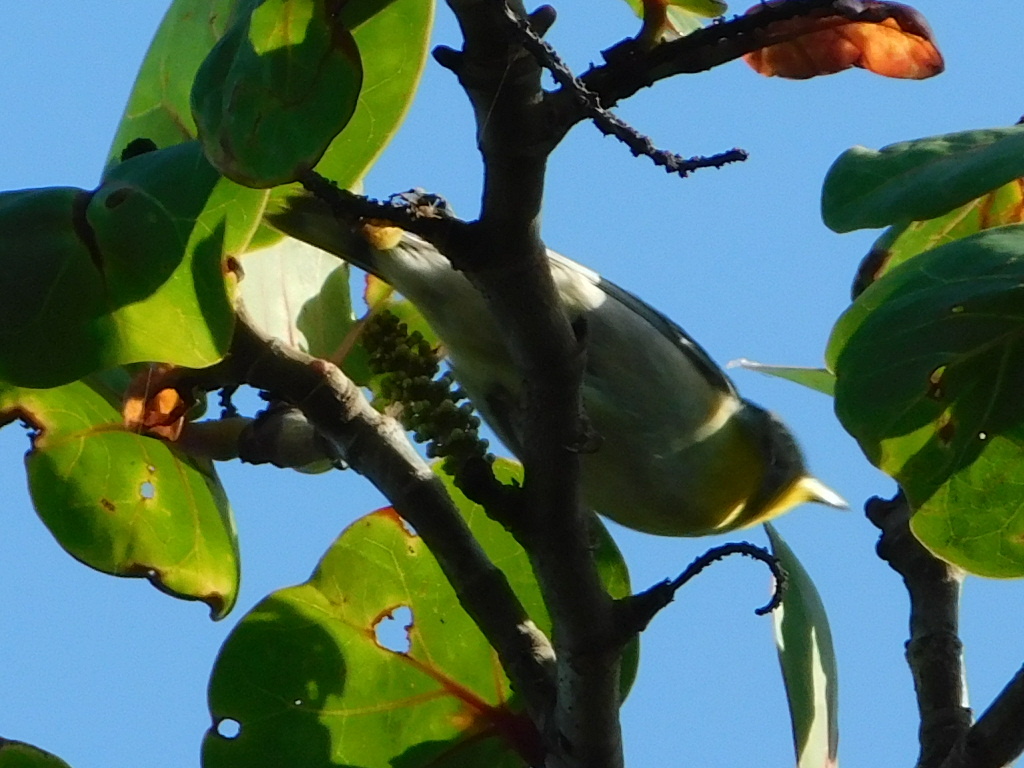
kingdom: Animalia
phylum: Chordata
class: Aves
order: Passeriformes
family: Parulidae
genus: Setophaga
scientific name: Setophaga americana
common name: Northern parula
